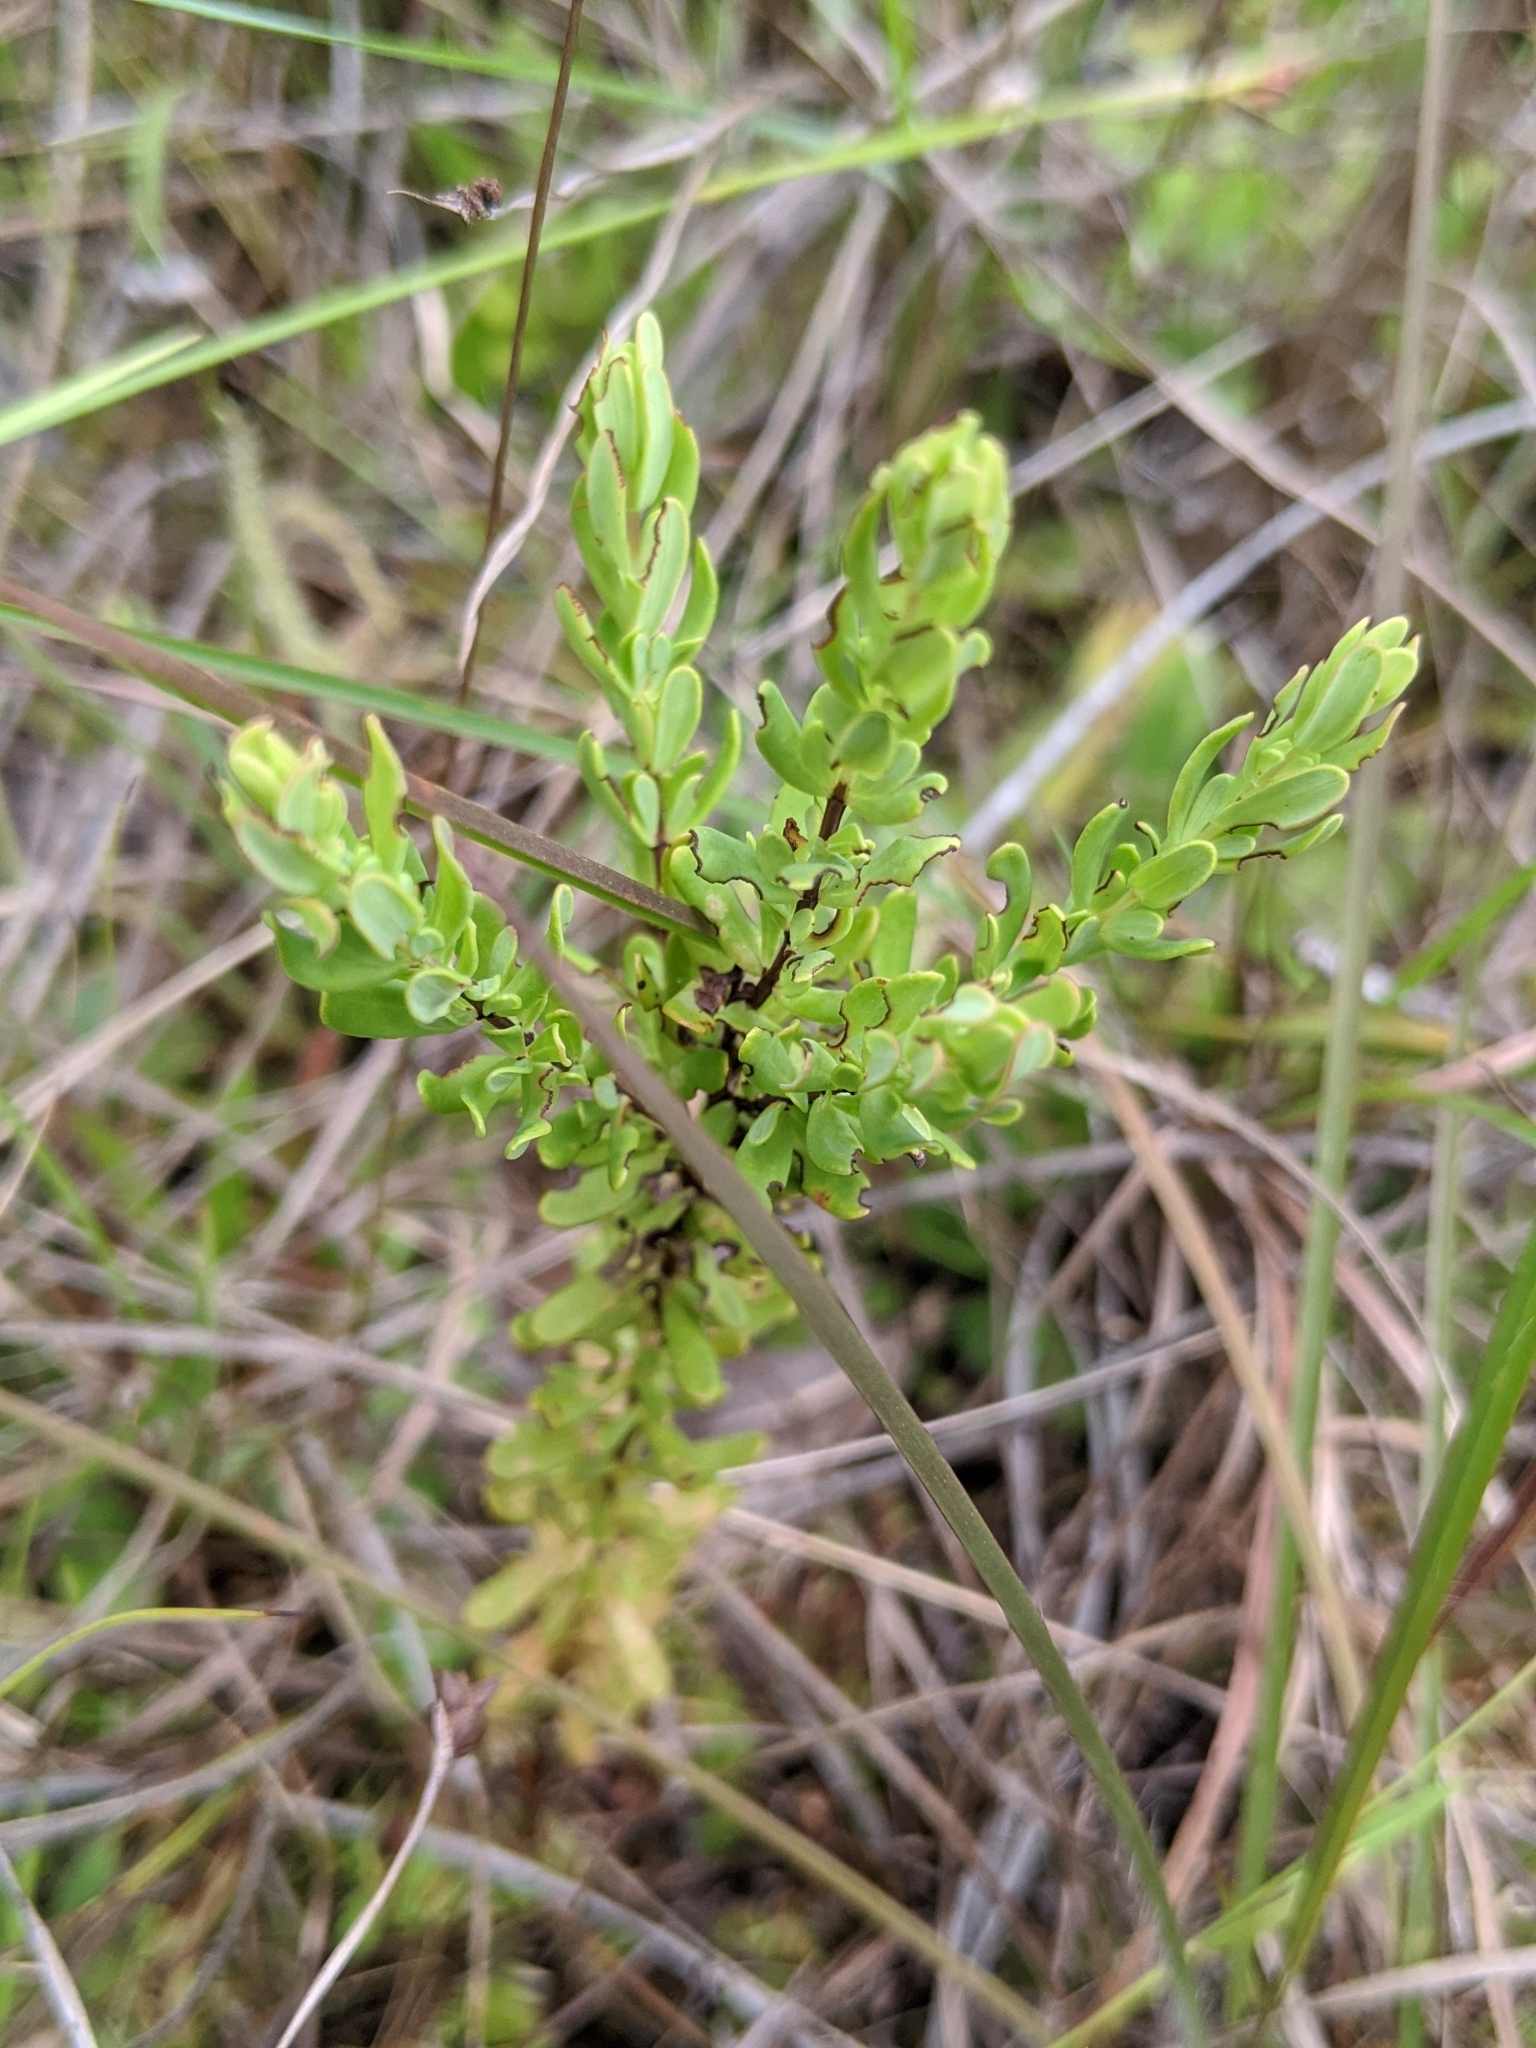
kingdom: Plantae
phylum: Tracheophyta
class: Magnoliopsida
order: Malpighiales
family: Hypericaceae
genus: Hypericum
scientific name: Hypericum microsepalum
